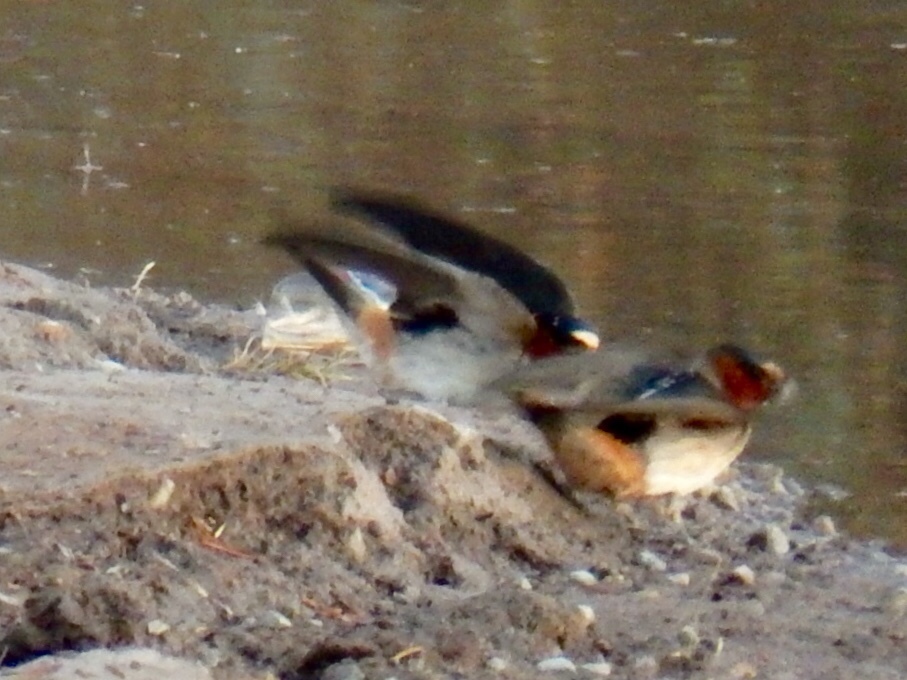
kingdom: Animalia
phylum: Chordata
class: Aves
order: Passeriformes
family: Hirundinidae
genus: Petrochelidon
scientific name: Petrochelidon pyrrhonota
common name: American cliff swallow
